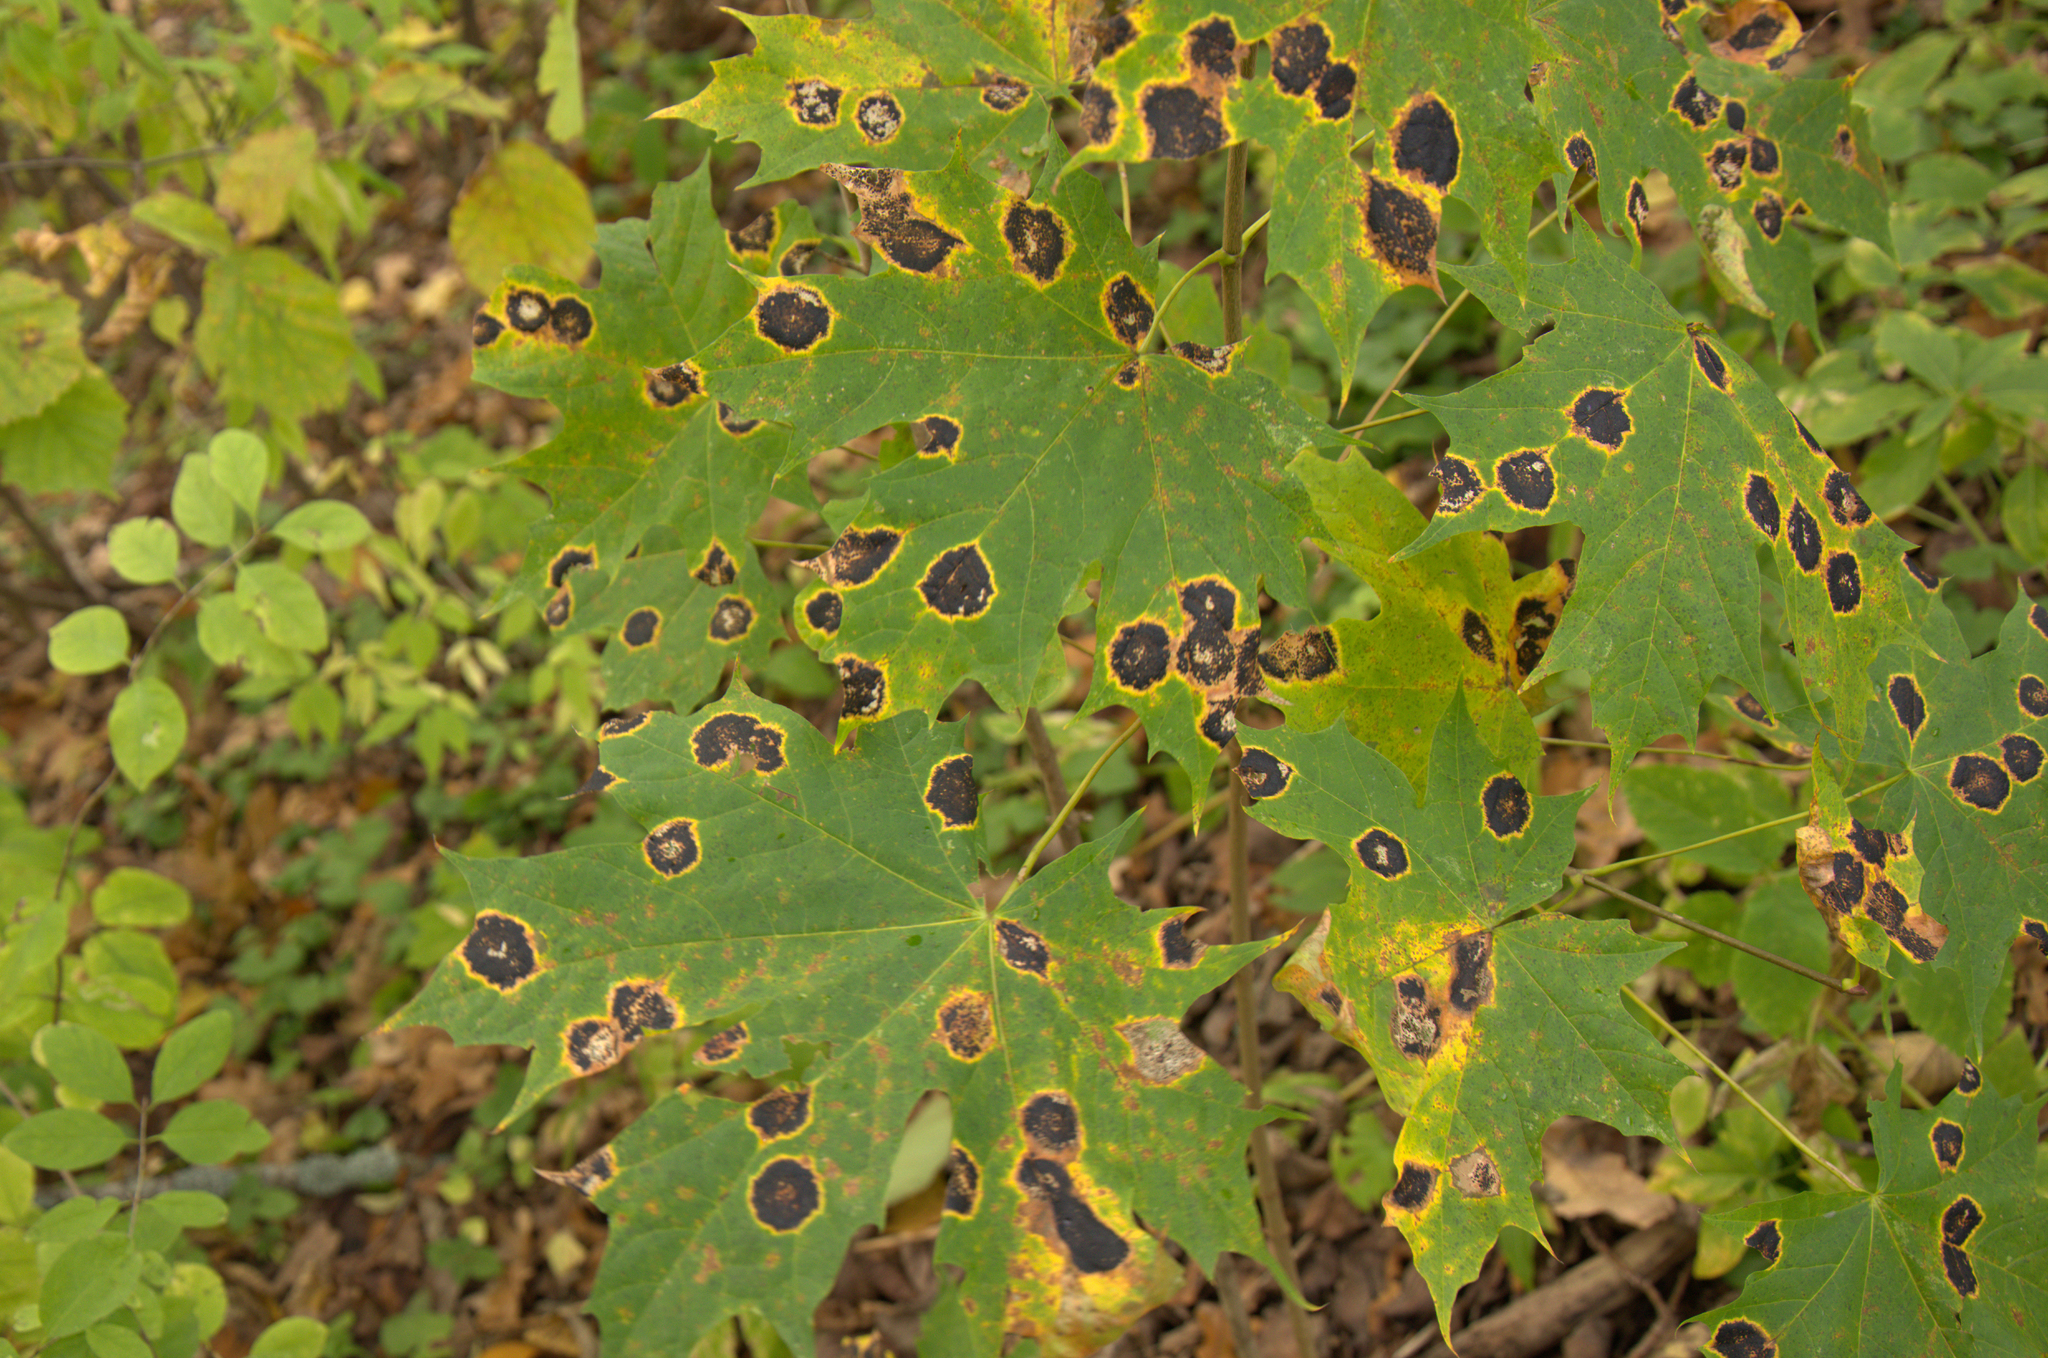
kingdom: Fungi
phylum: Ascomycota
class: Leotiomycetes
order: Rhytismatales
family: Rhytismataceae
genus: Rhytisma
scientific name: Rhytisma acerinum
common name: European tar spot
